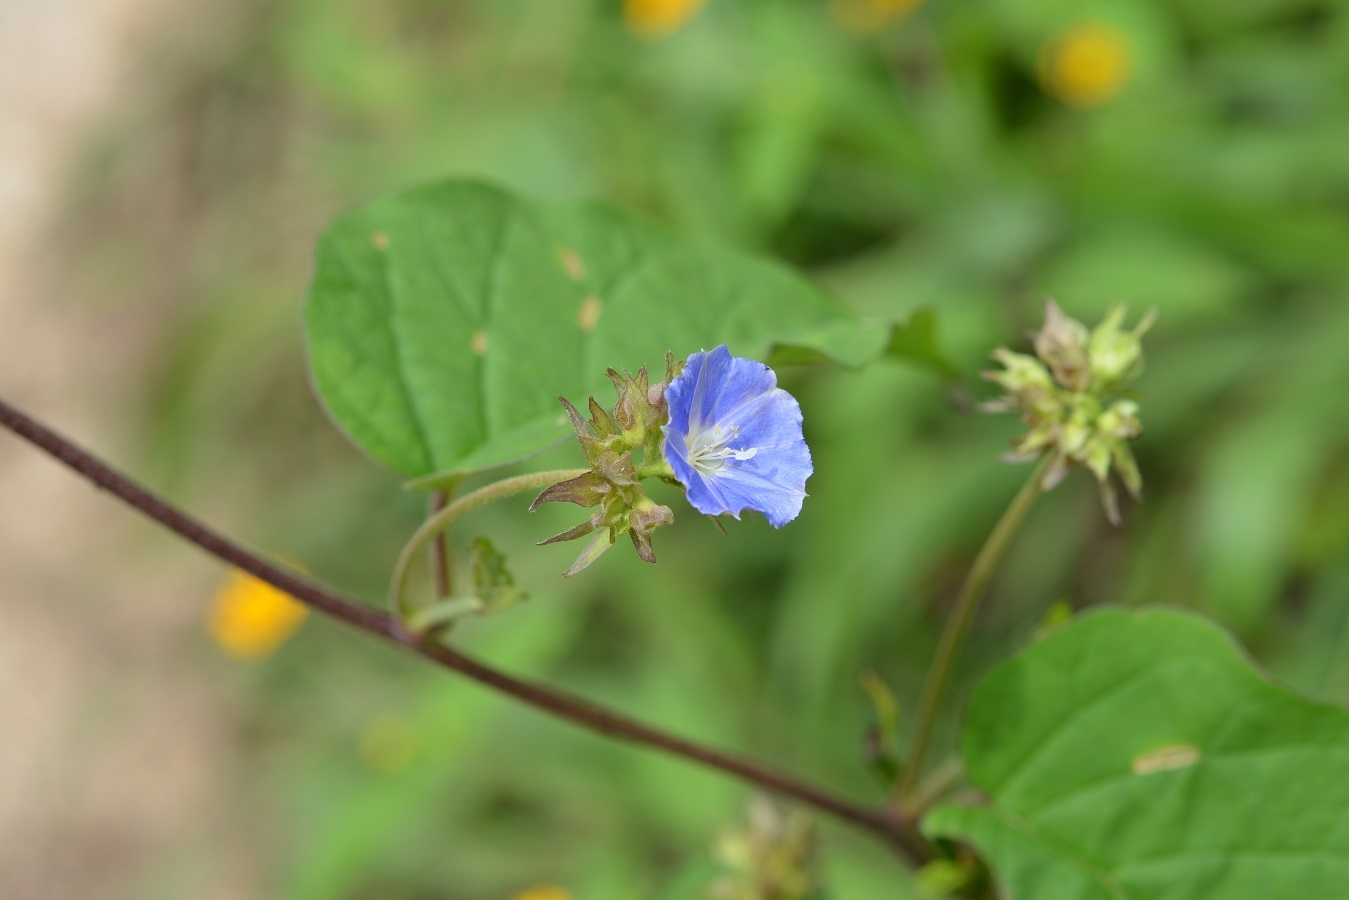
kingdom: Plantae
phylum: Tracheophyta
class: Magnoliopsida
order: Solanales
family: Convolvulaceae
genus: Jacquemontia
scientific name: Jacquemontia pentanthos
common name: Skyblue clustervine
